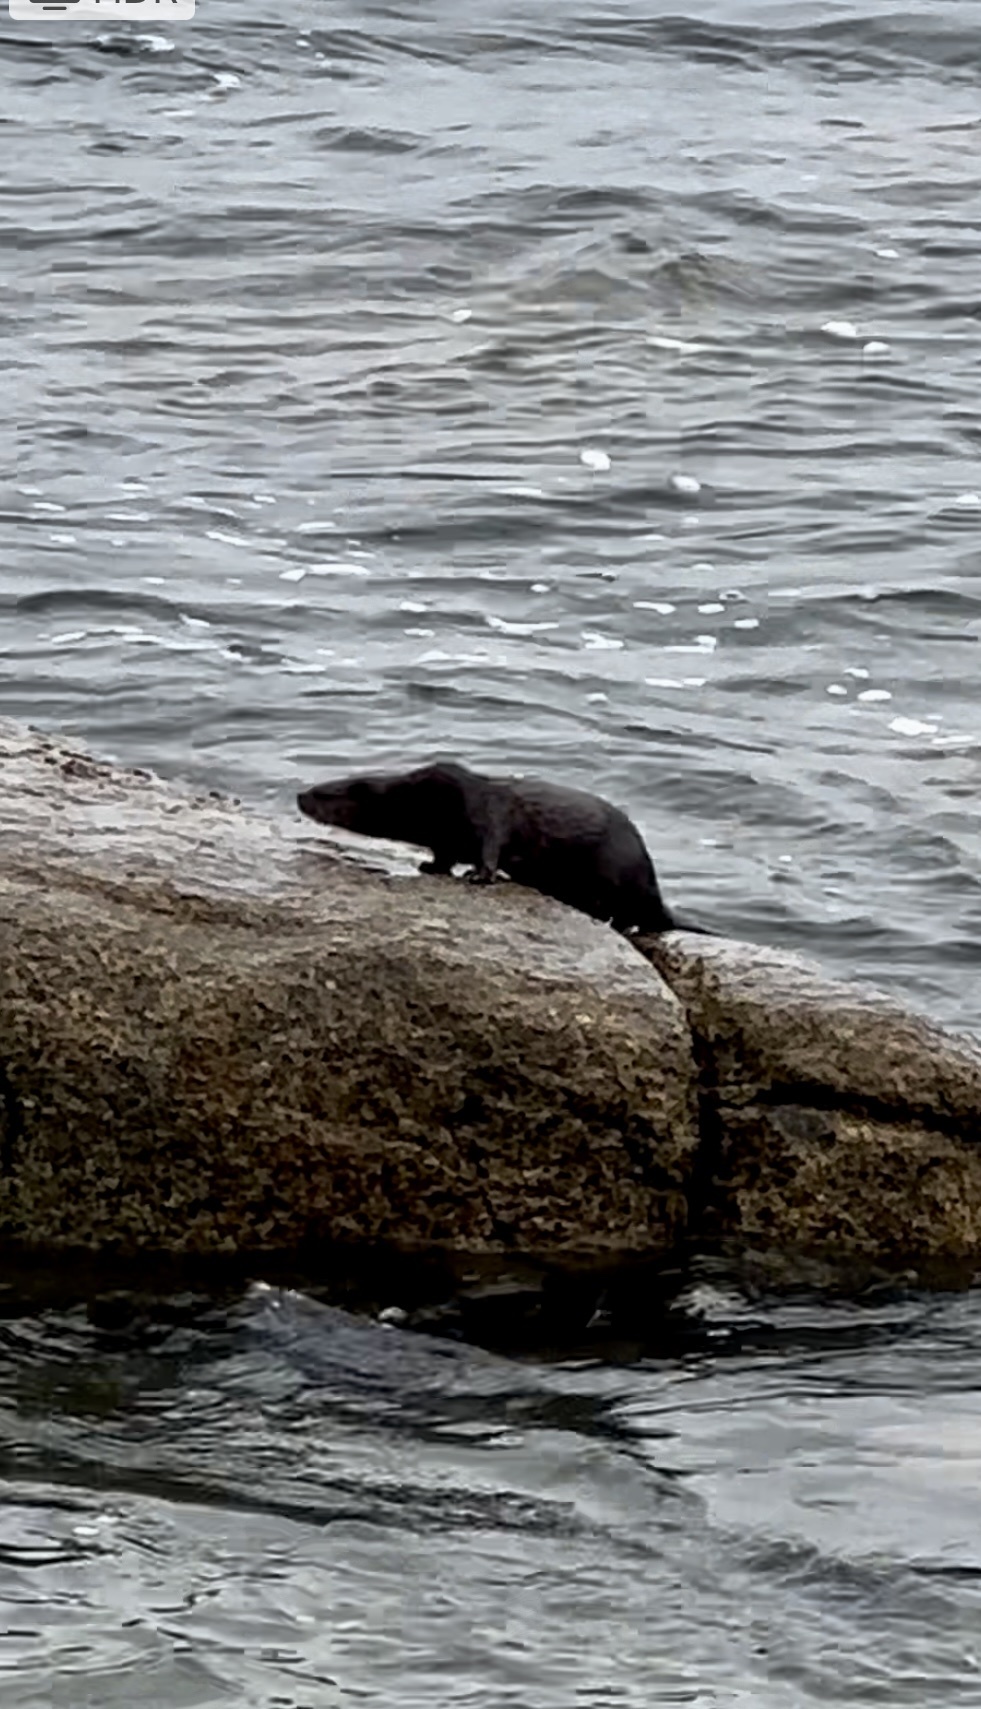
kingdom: Animalia
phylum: Chordata
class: Mammalia
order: Carnivora
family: Mustelidae
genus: Lontra
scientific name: Lontra felina
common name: Marine otter
